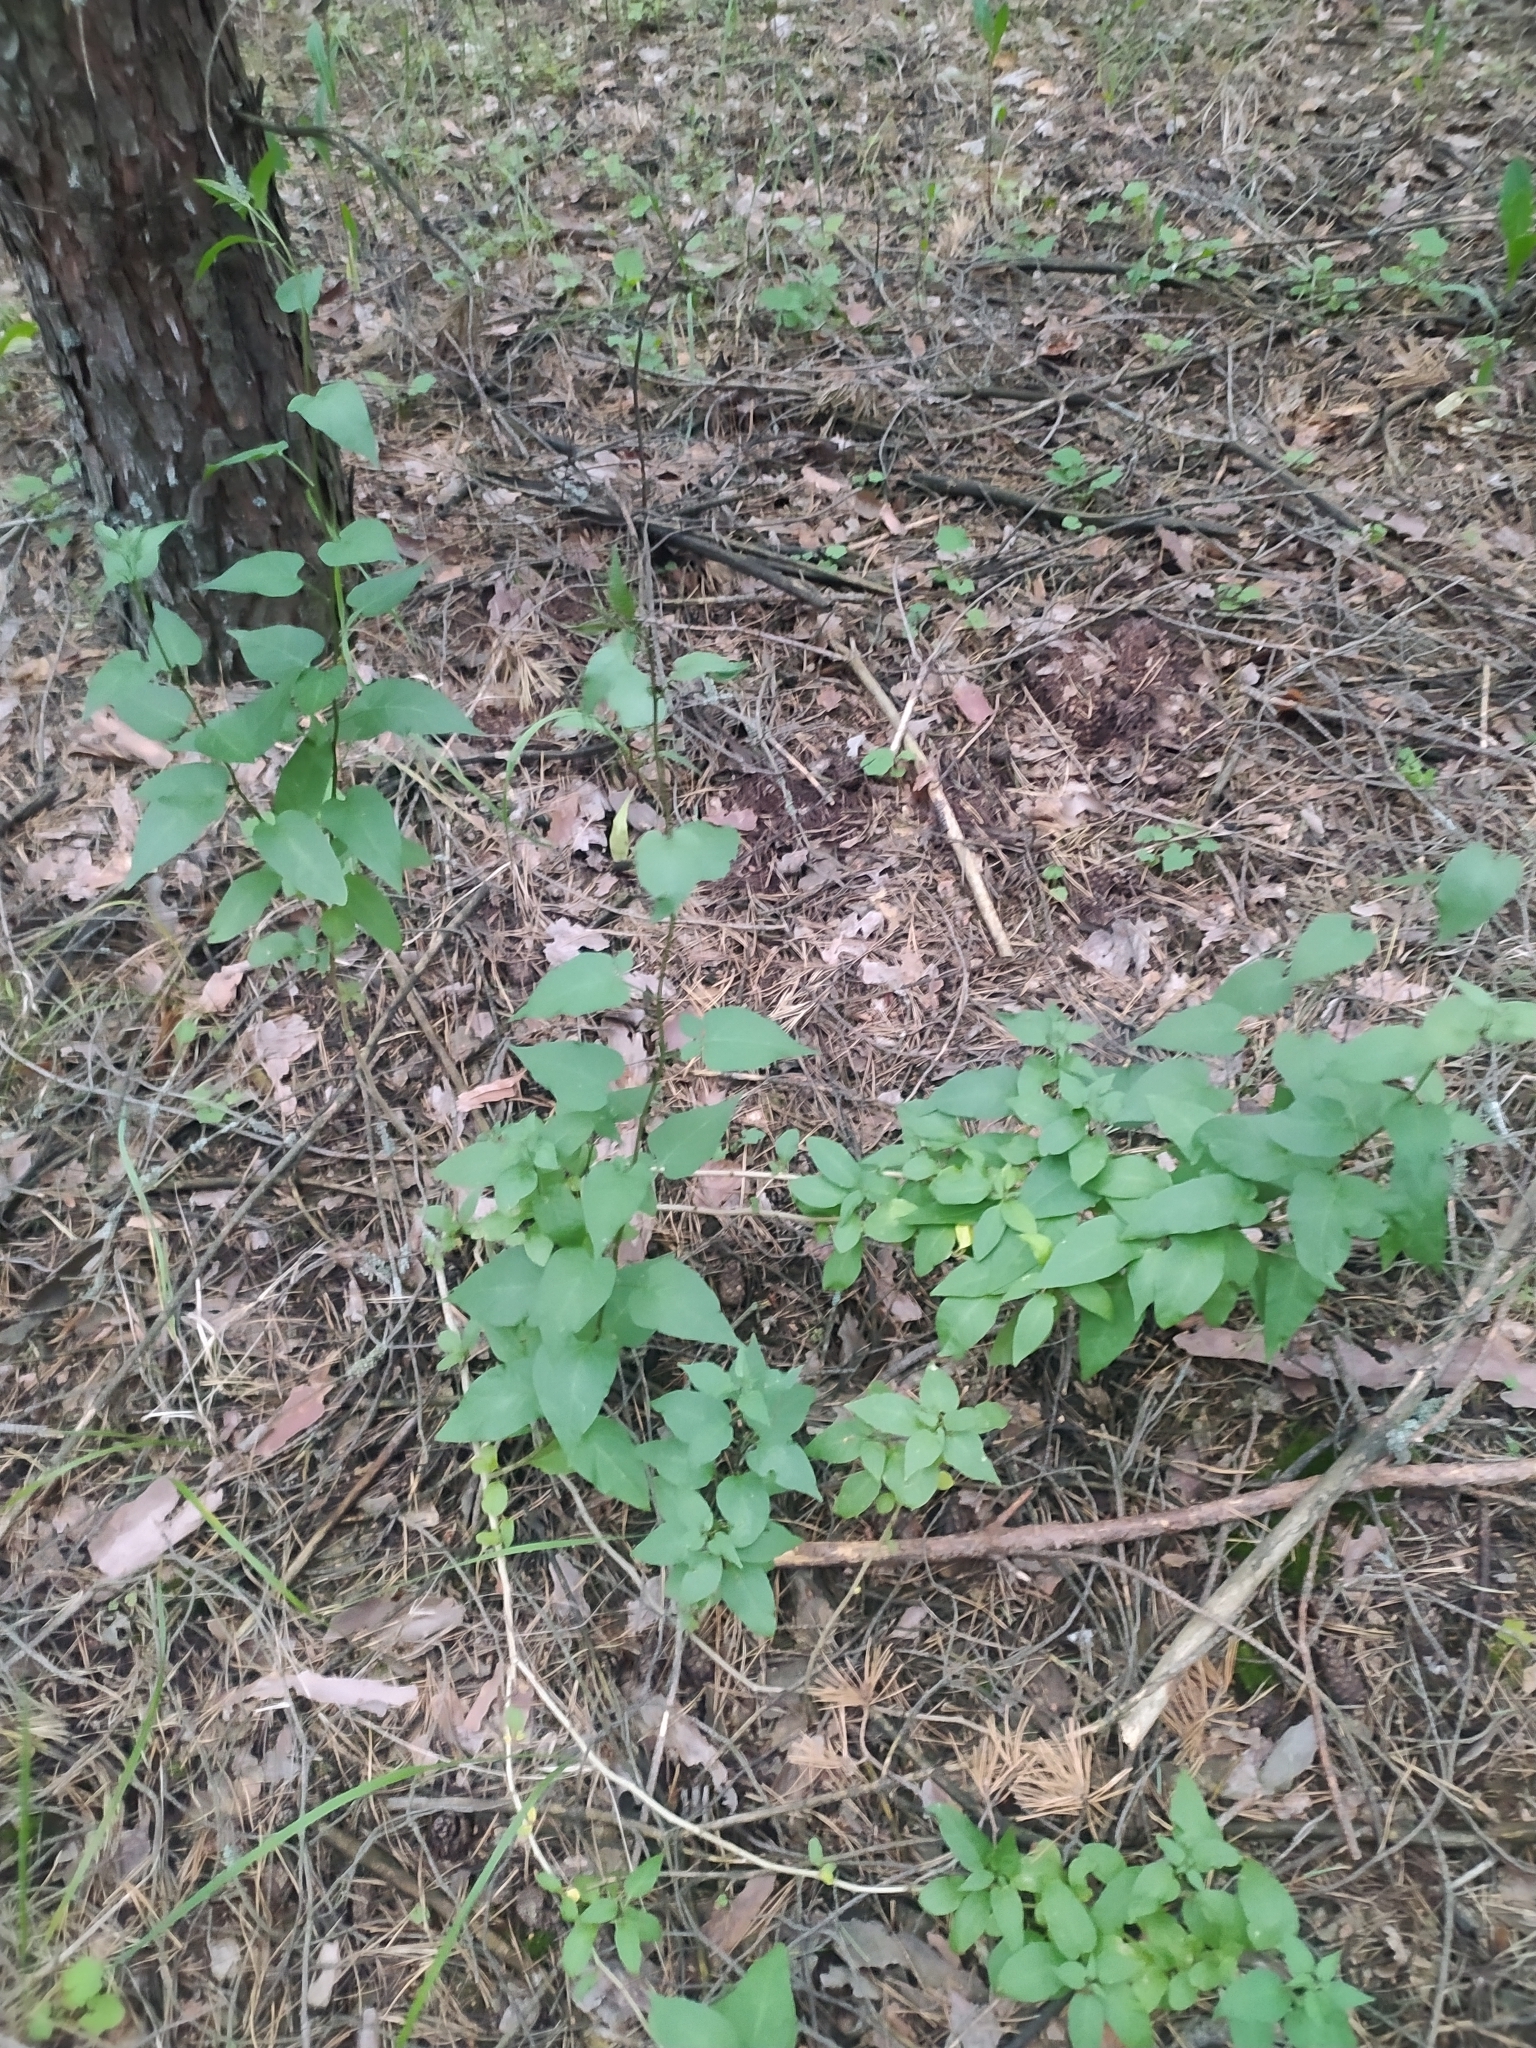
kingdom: Plantae
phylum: Tracheophyta
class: Magnoliopsida
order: Solanales
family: Solanaceae
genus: Solanum
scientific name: Solanum dulcamara
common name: Climbing nightshade
